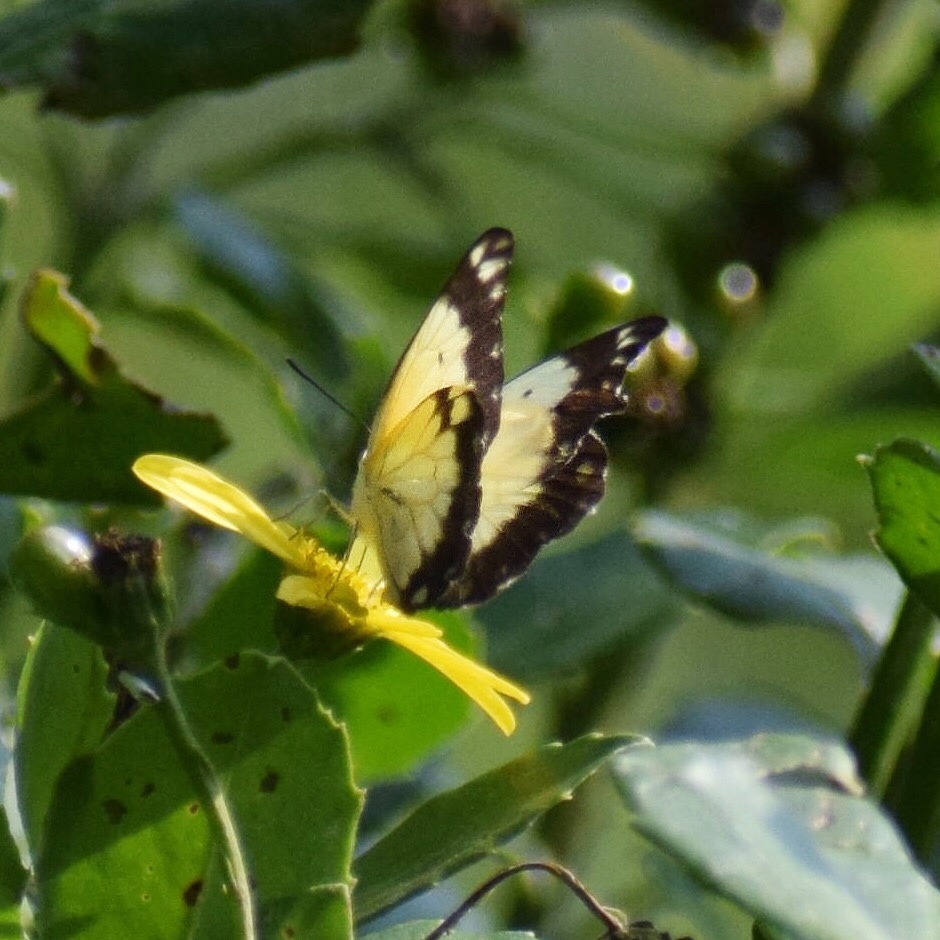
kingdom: Animalia
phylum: Arthropoda
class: Insecta
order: Lepidoptera
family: Pieridae
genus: Belenois
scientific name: Belenois creona
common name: African caper white
